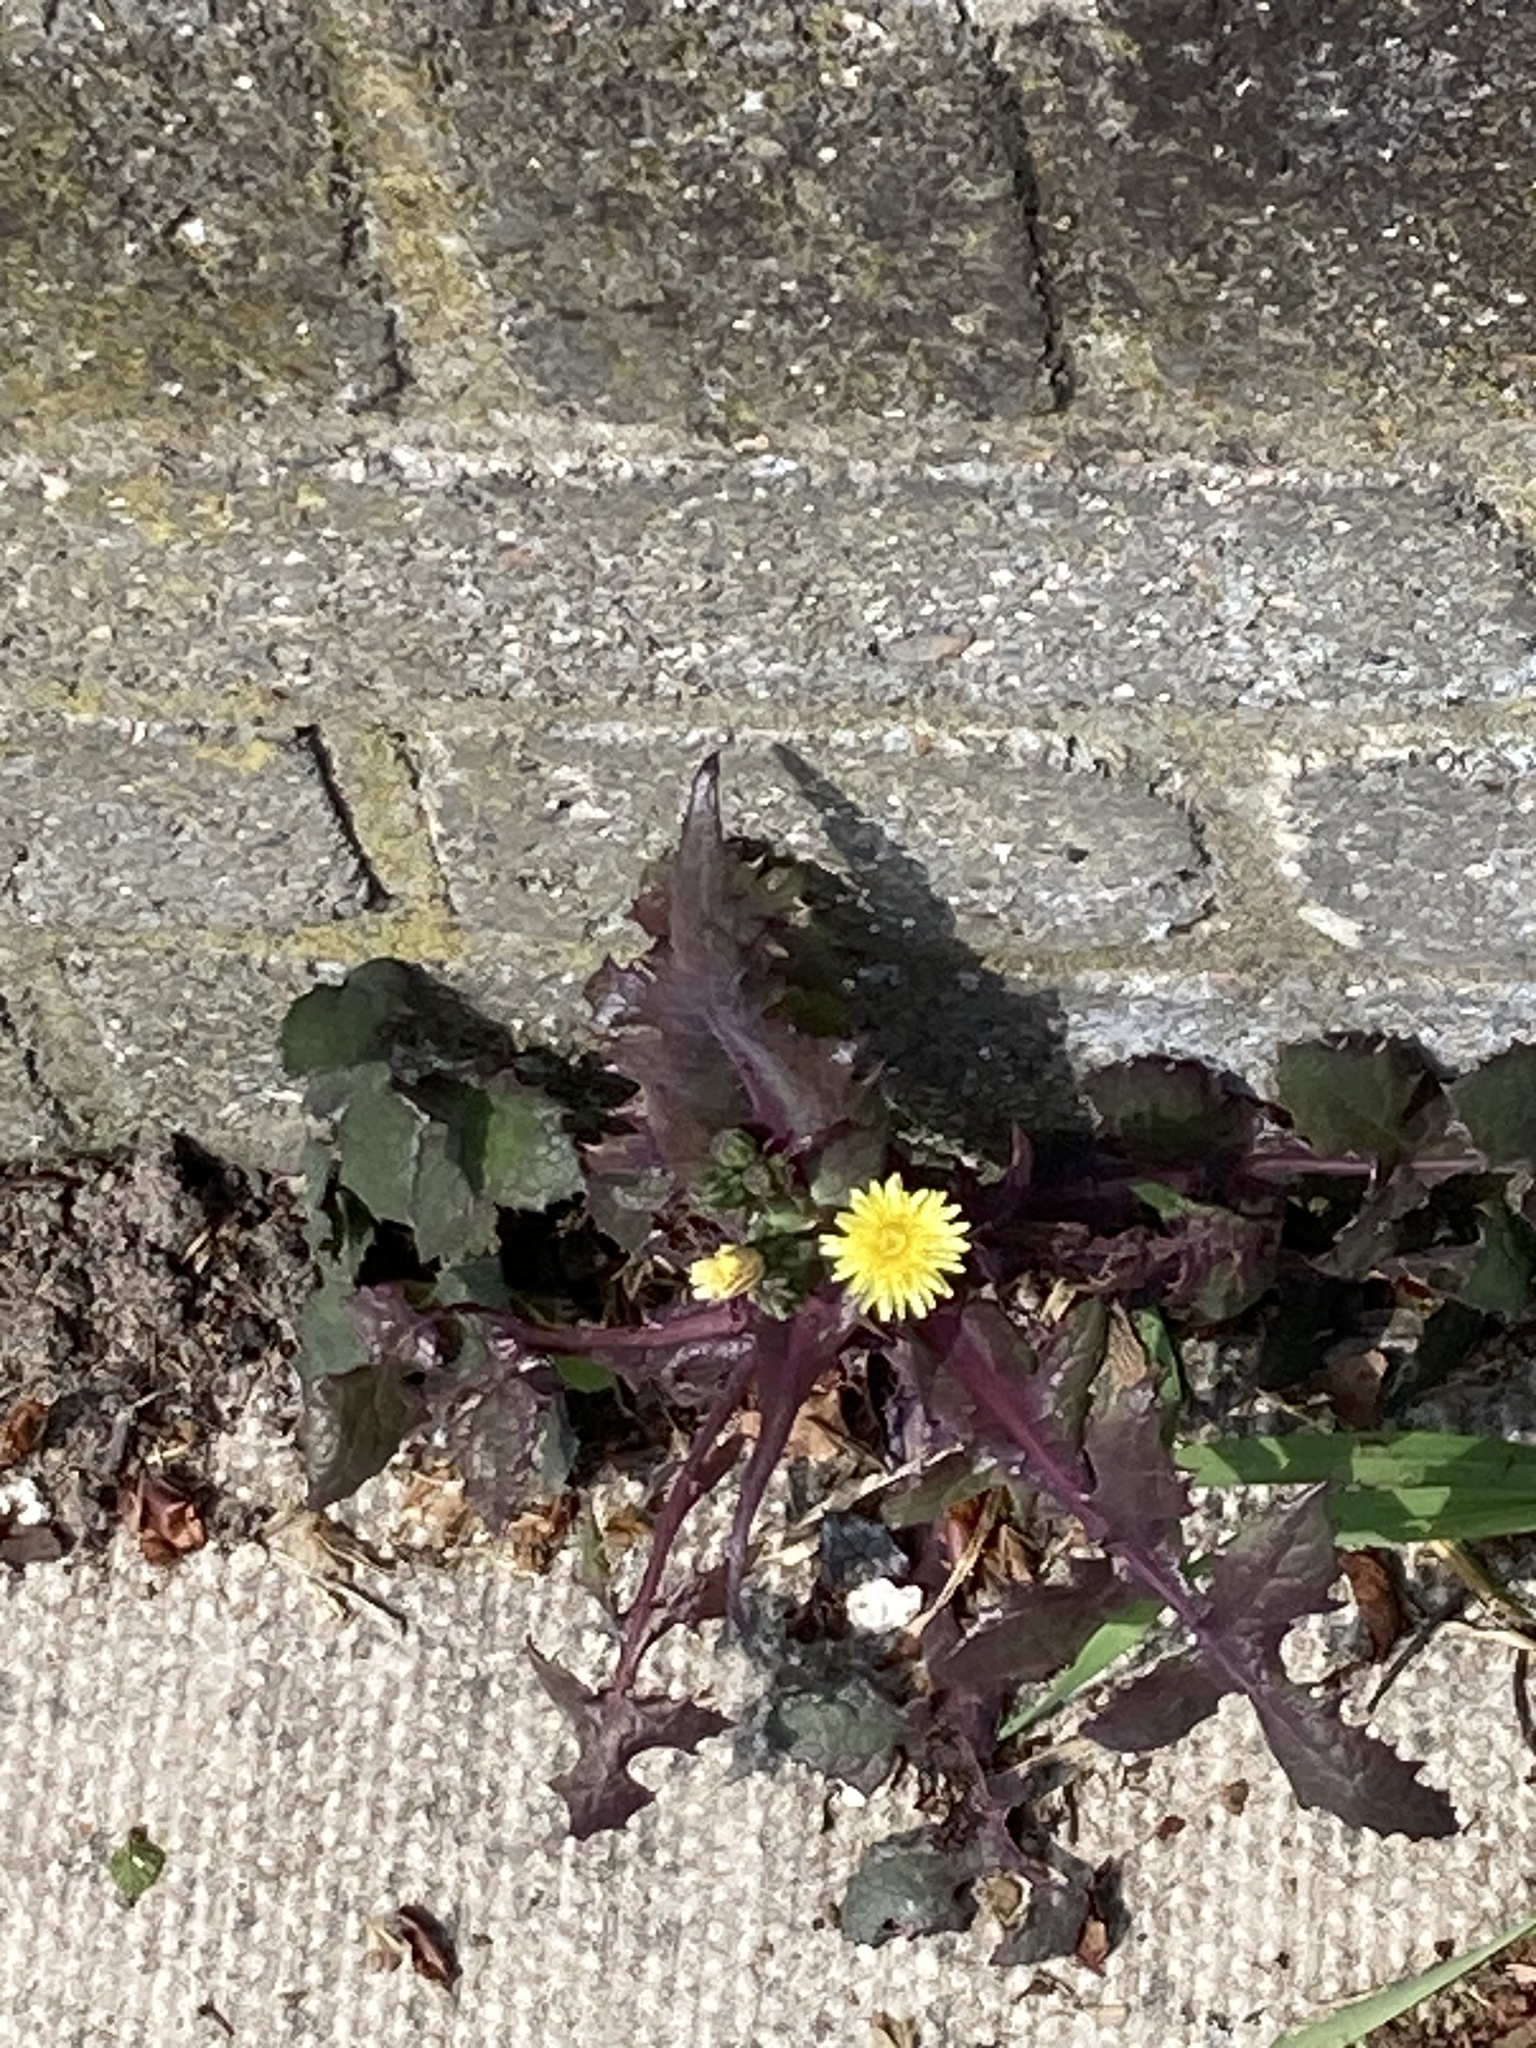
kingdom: Plantae
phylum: Tracheophyta
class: Magnoliopsida
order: Asterales
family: Asteraceae
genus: Sonchus
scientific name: Sonchus oleraceus
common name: Common sowthistle
